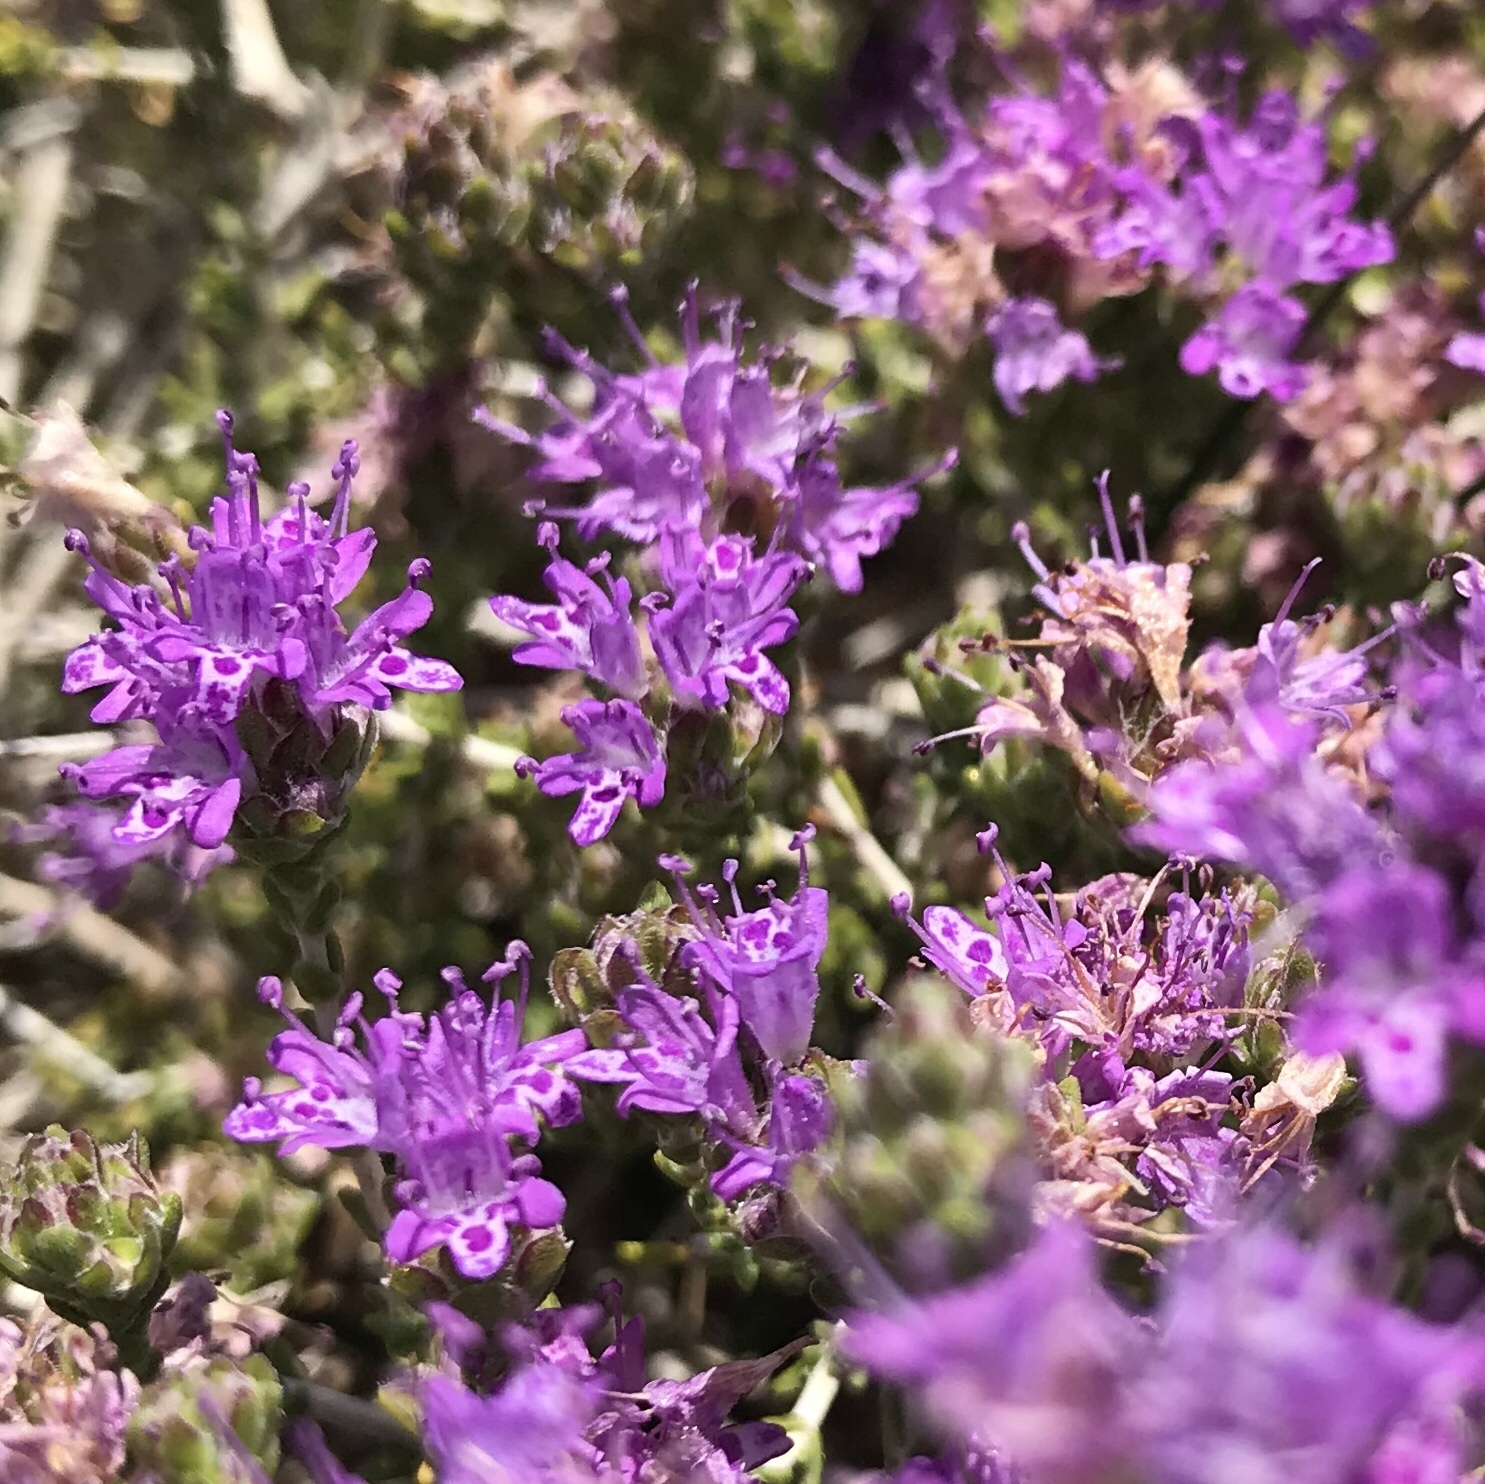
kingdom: Plantae
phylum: Tracheophyta
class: Magnoliopsida
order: Lamiales
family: Lamiaceae
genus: Thymbra
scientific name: Thymbra capitata
